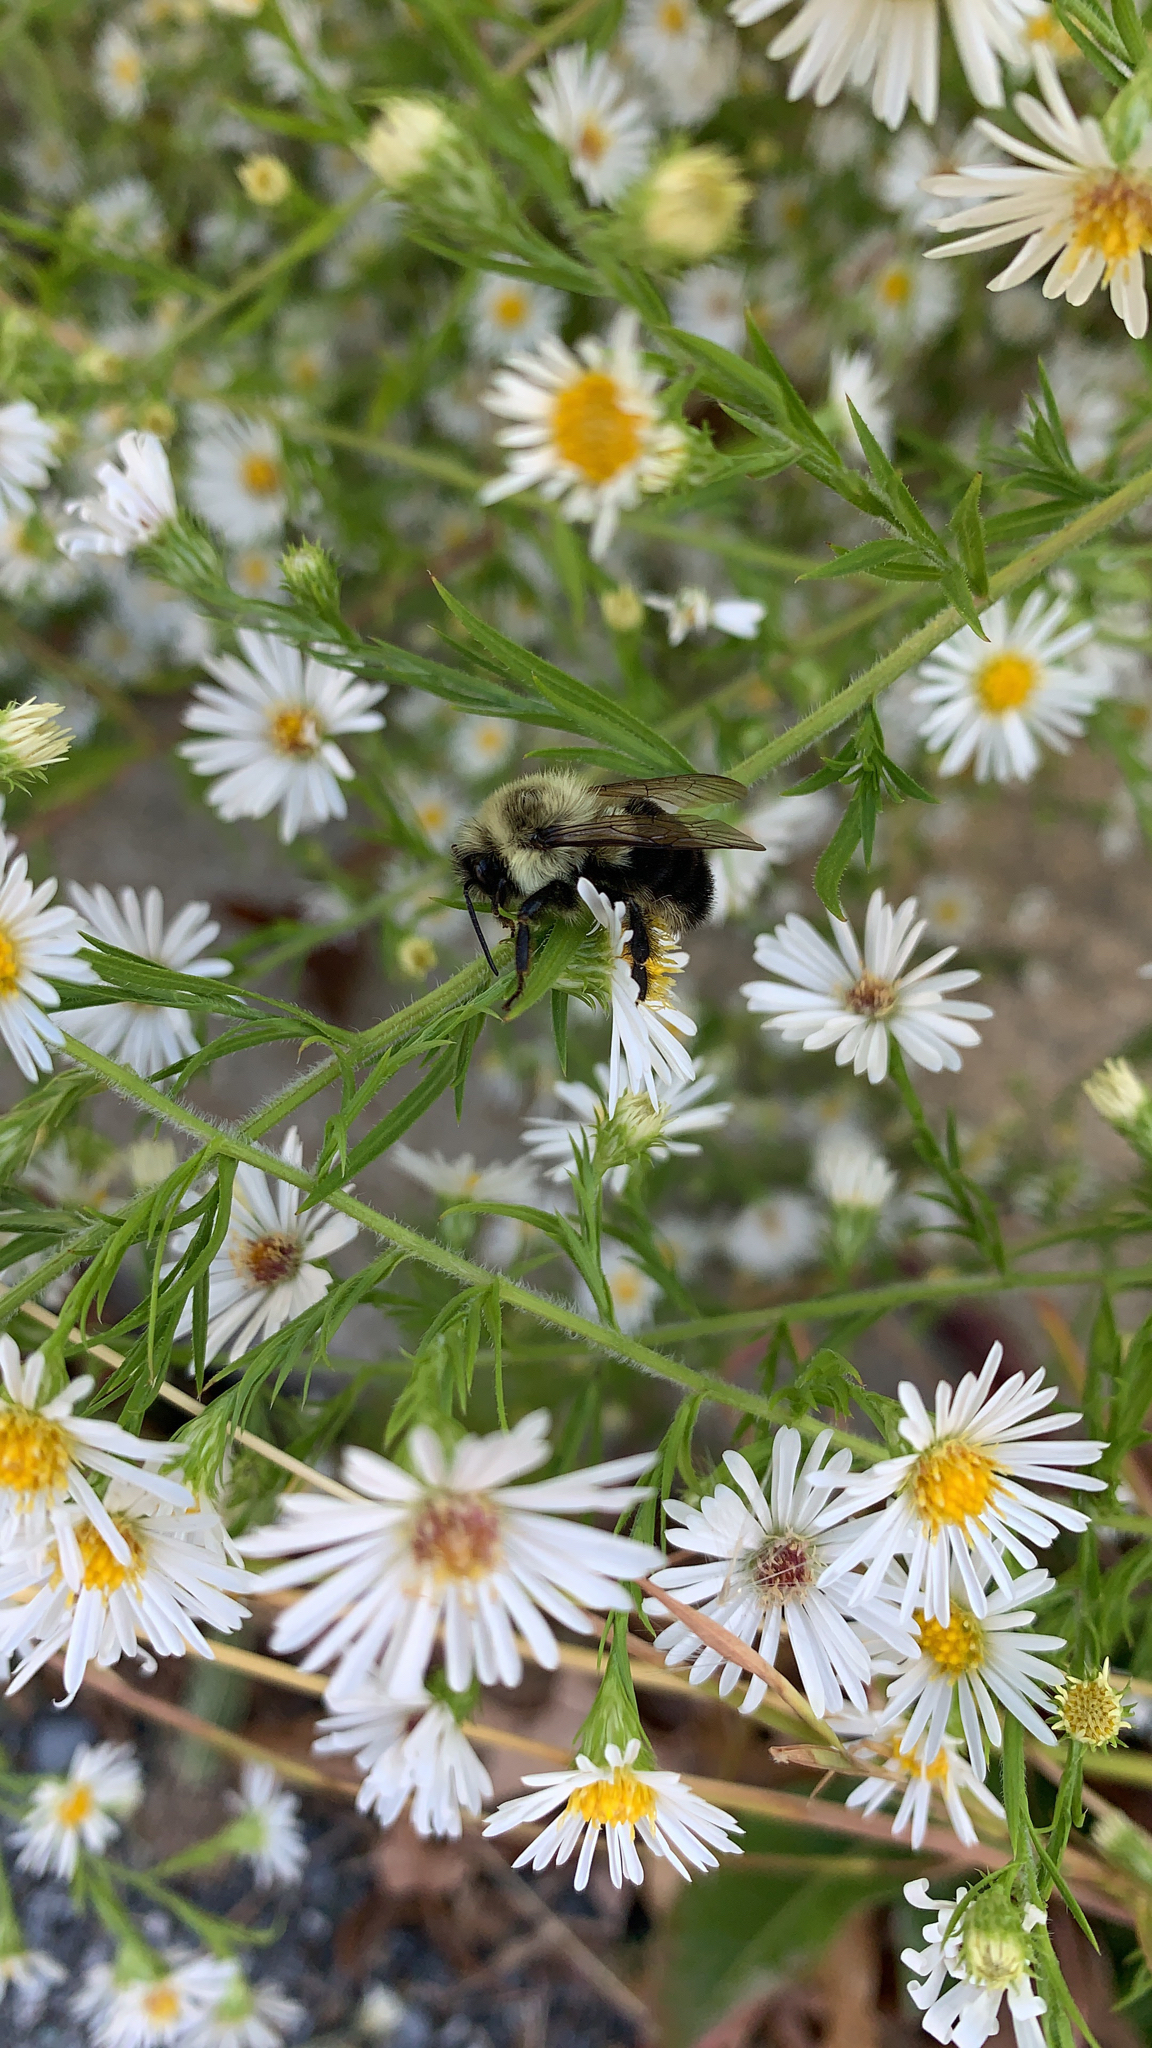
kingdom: Animalia
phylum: Arthropoda
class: Insecta
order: Hymenoptera
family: Apidae
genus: Bombus
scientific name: Bombus impatiens
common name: Common eastern bumble bee
